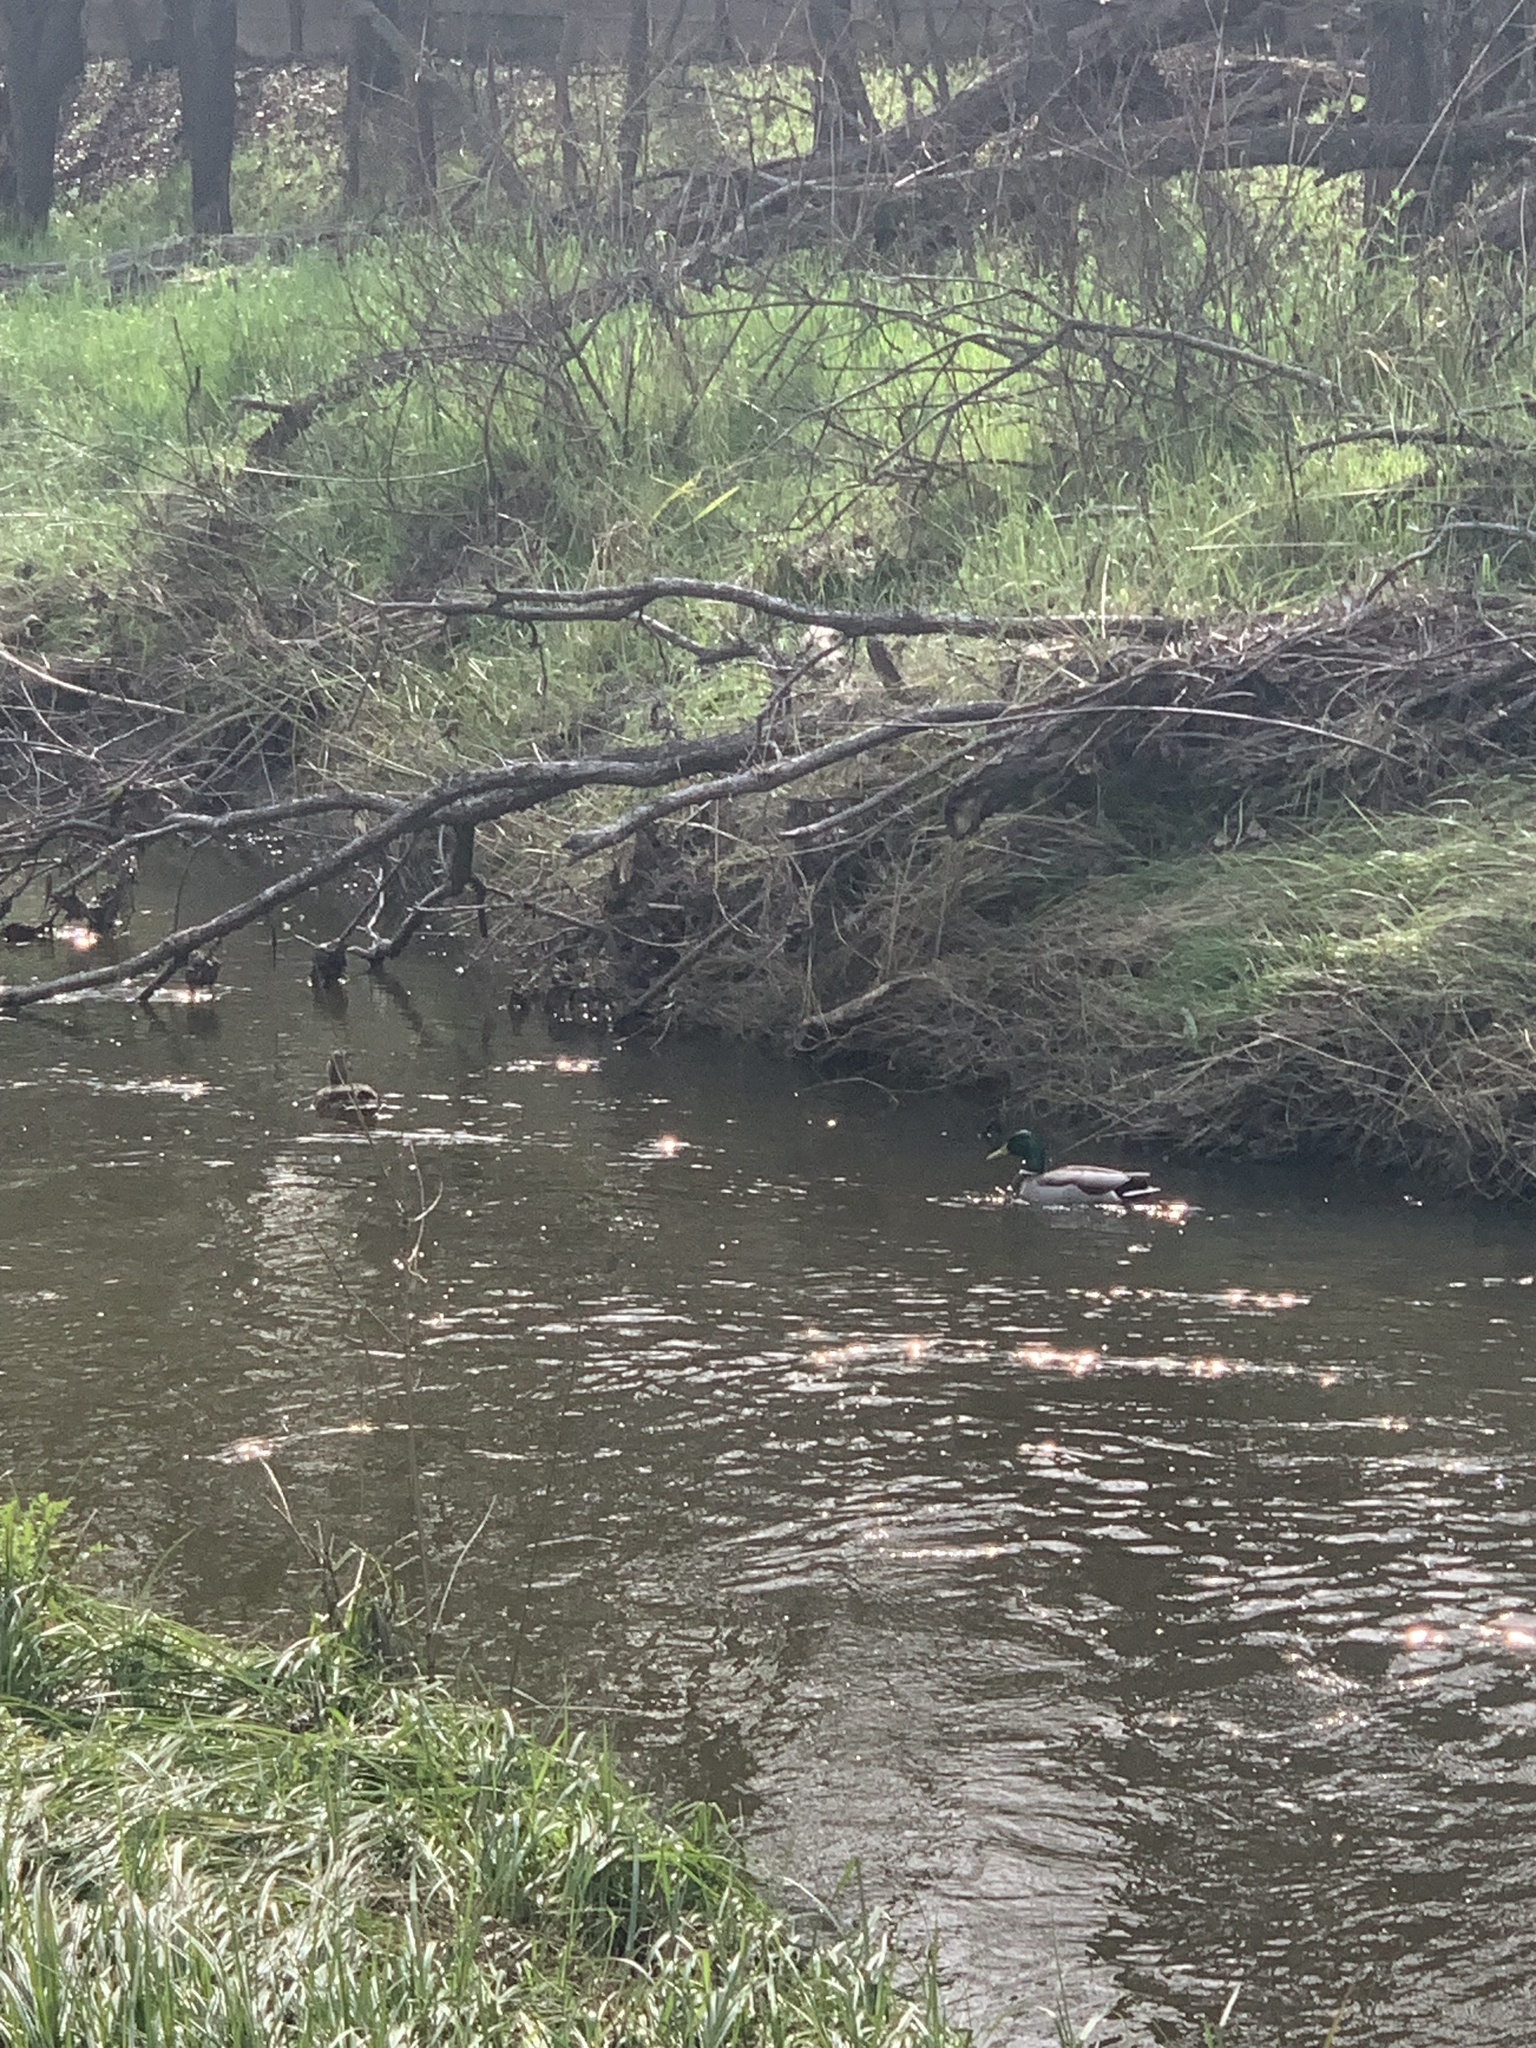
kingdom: Animalia
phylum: Chordata
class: Aves
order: Anseriformes
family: Anatidae
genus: Anas
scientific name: Anas platyrhynchos
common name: Mallard
